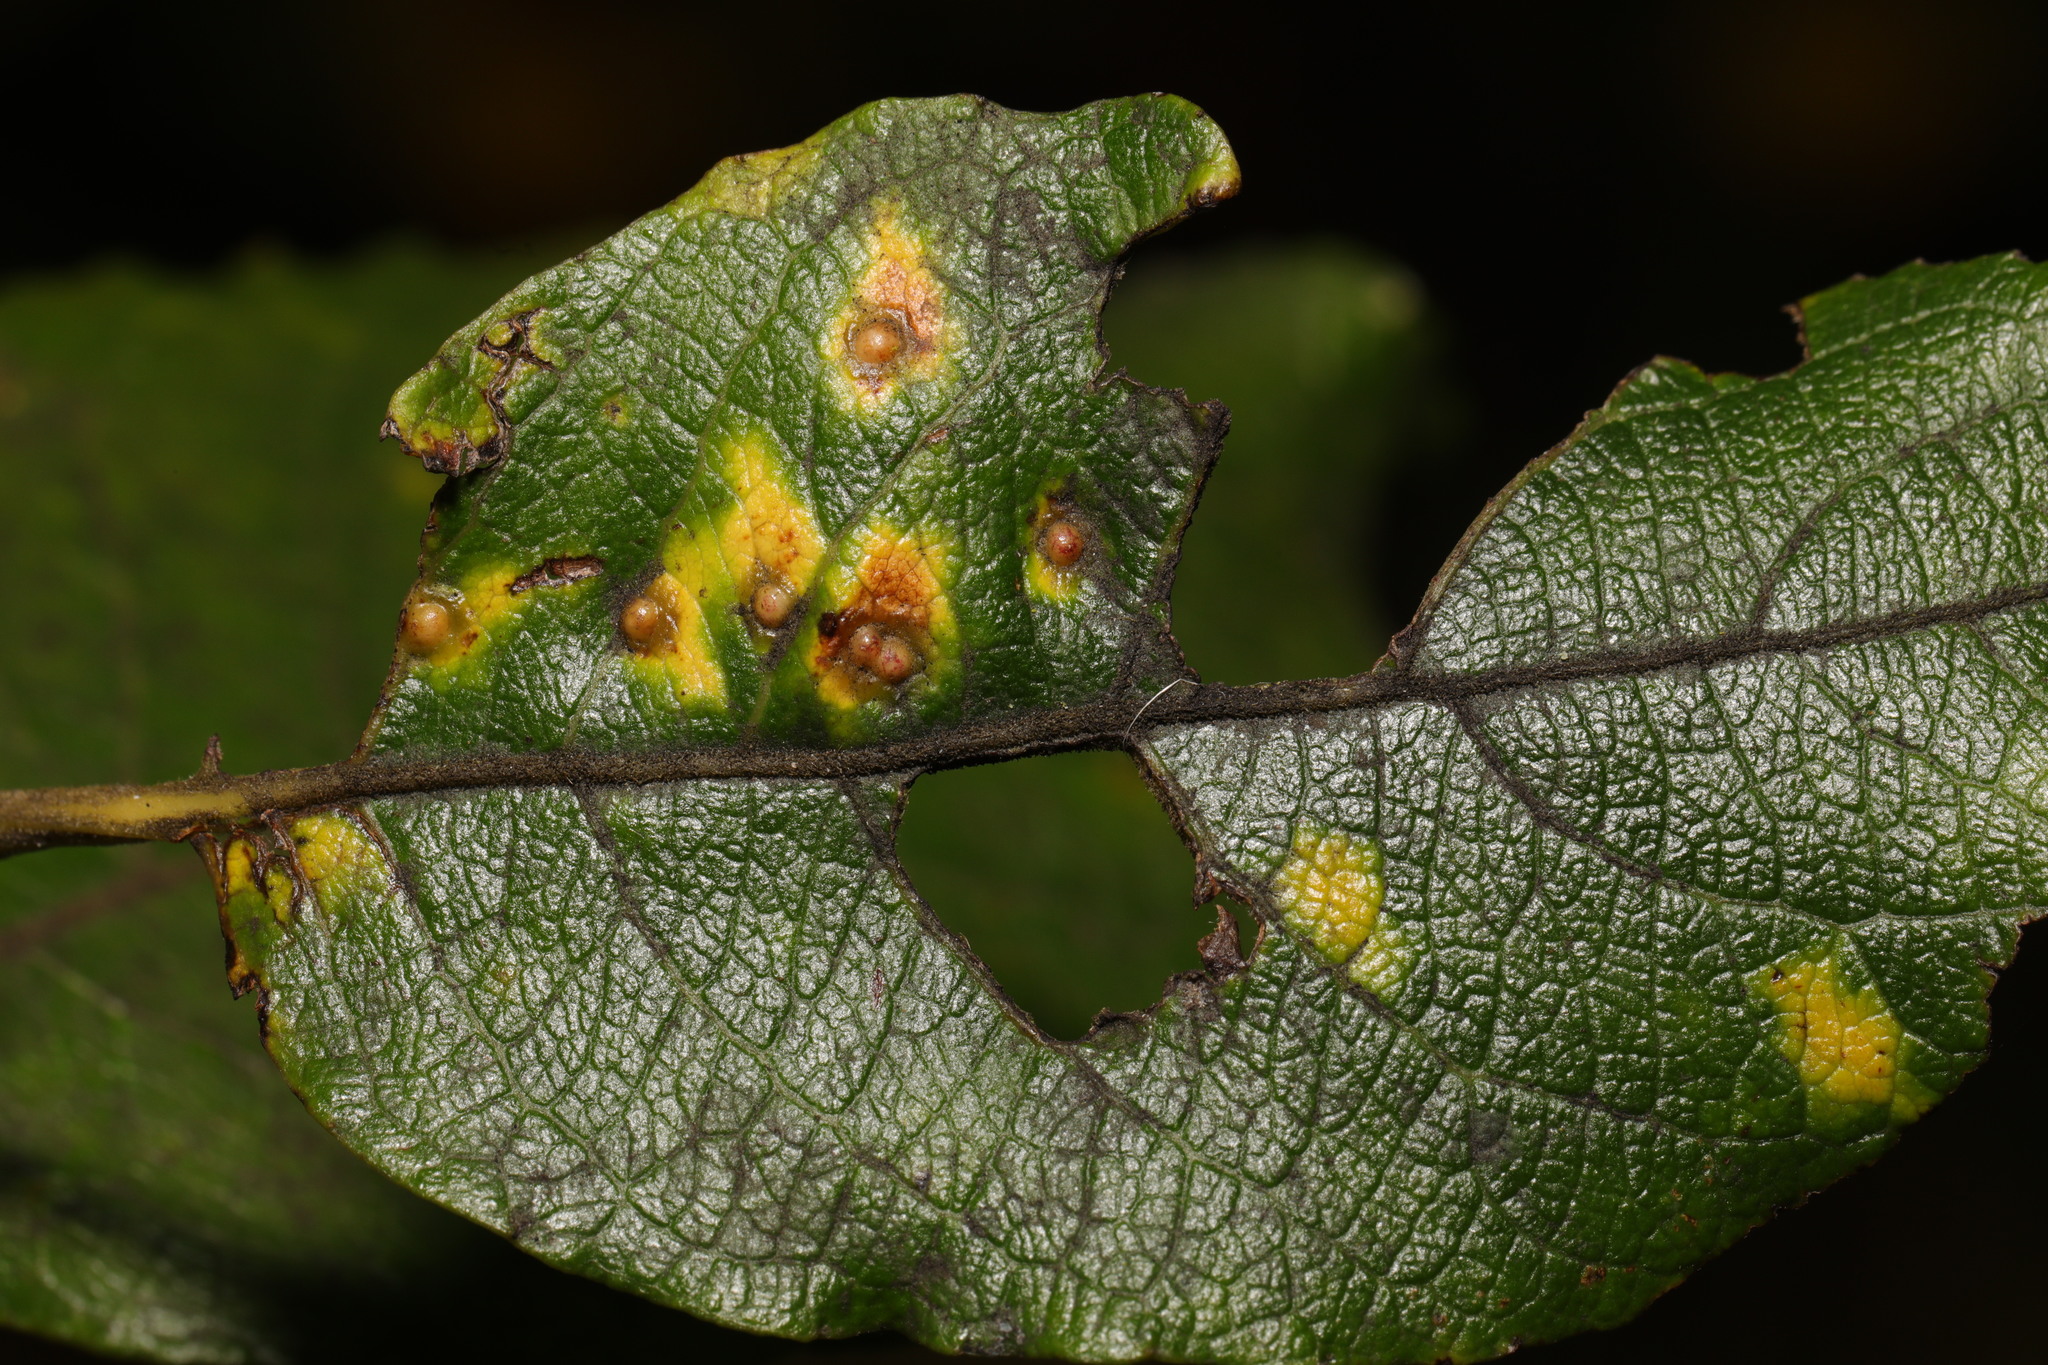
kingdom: Animalia
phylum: Arthropoda
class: Insecta
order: Diptera
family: Cecidomyiidae
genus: Iteomyia
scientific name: Iteomyia capreae
